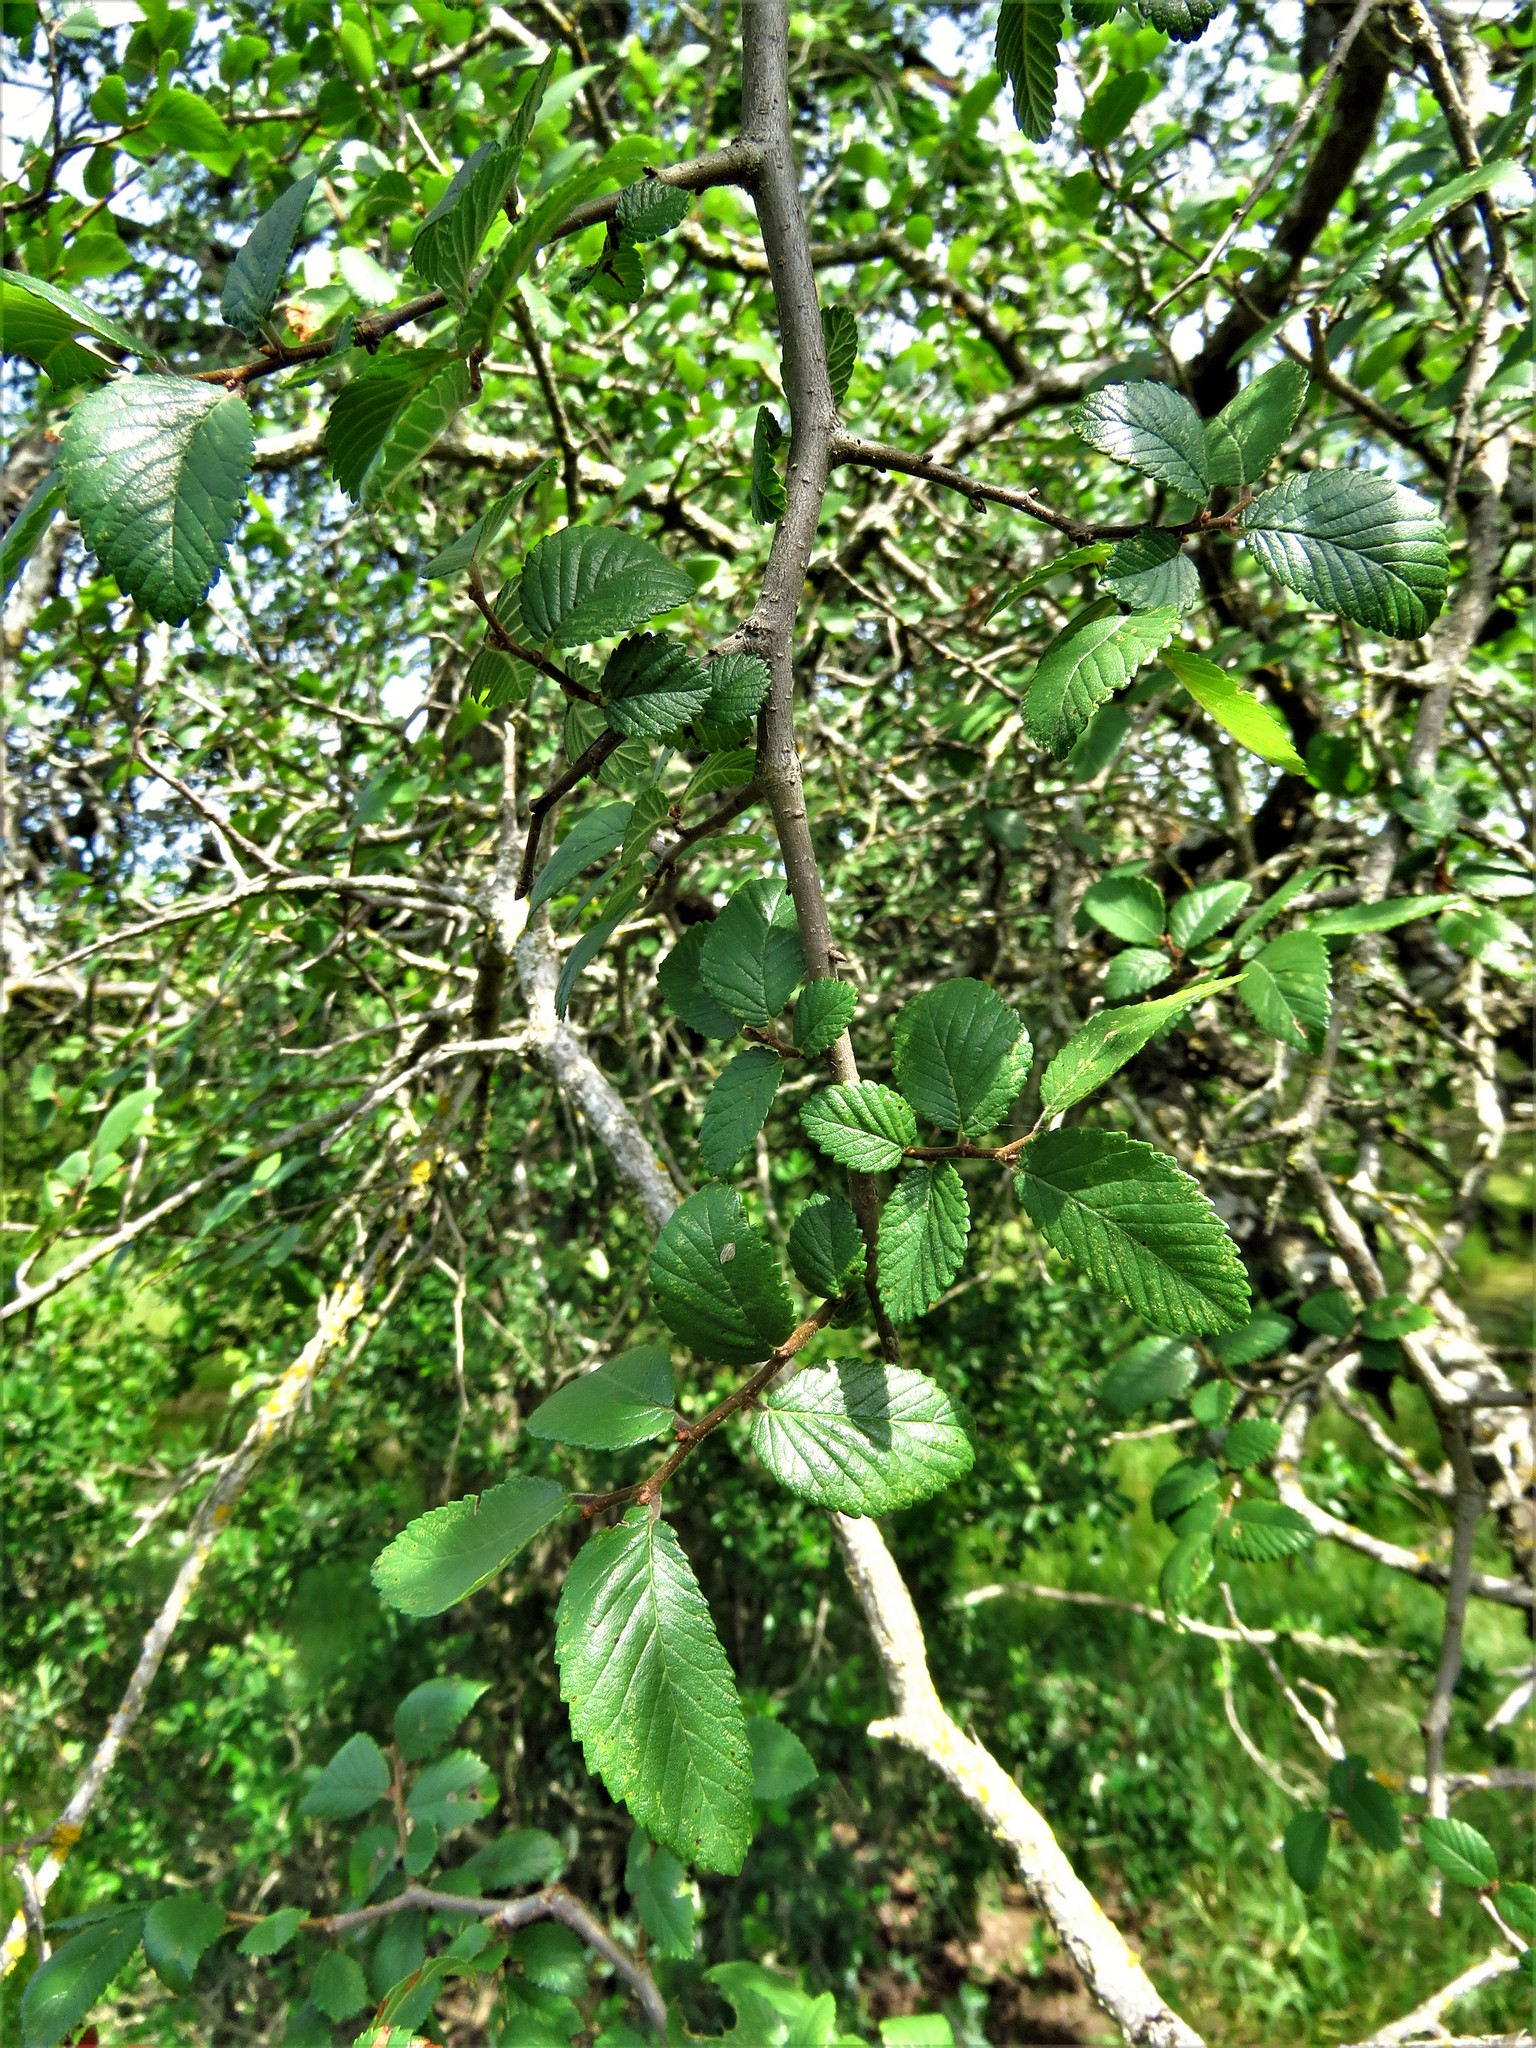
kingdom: Plantae
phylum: Tracheophyta
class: Magnoliopsida
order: Rosales
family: Ulmaceae
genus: Ulmus
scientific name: Ulmus crassifolia
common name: Basket elm
